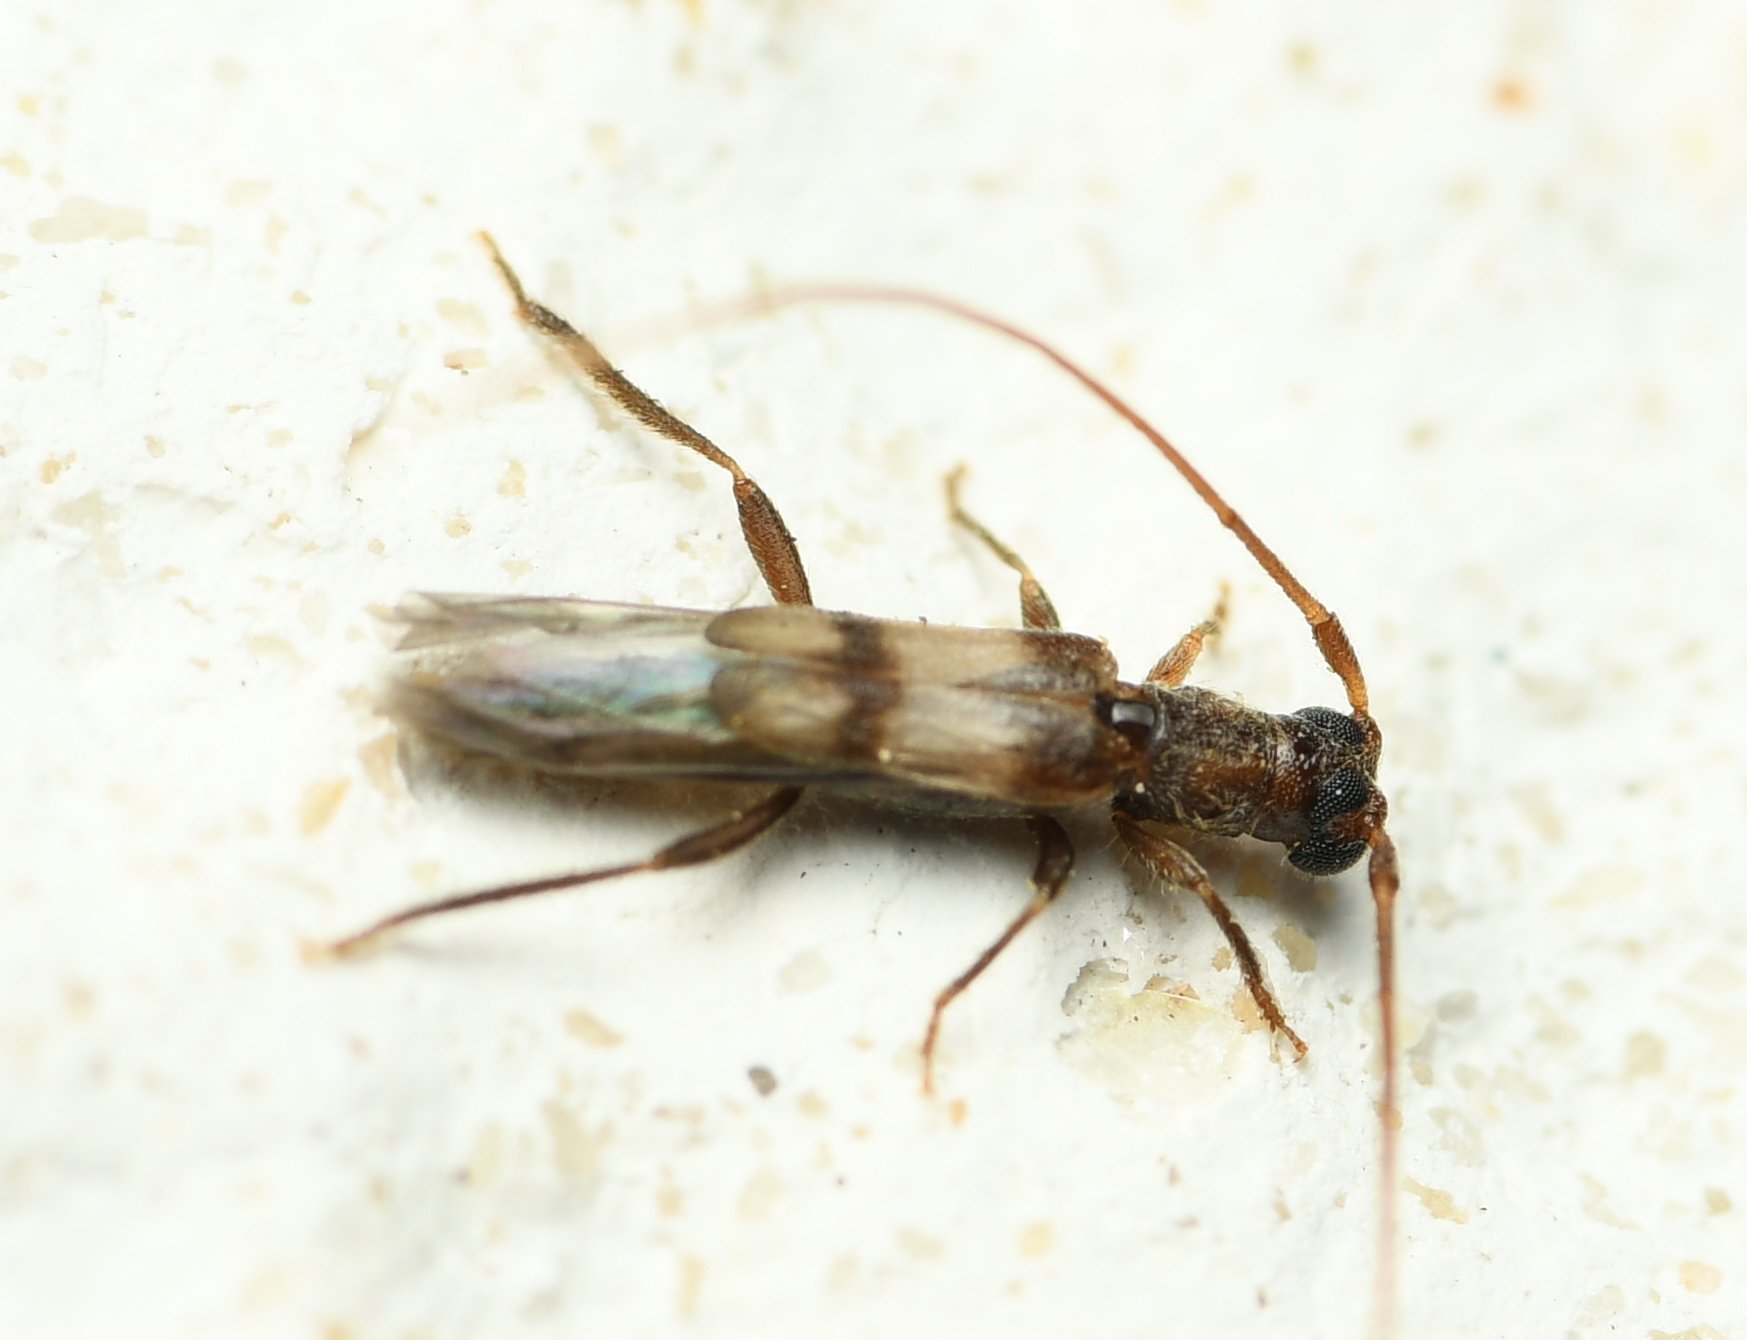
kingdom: Animalia
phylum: Arthropoda
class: Insecta
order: Coleoptera
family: Cerambycidae
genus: Methia
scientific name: Methia necydalea
